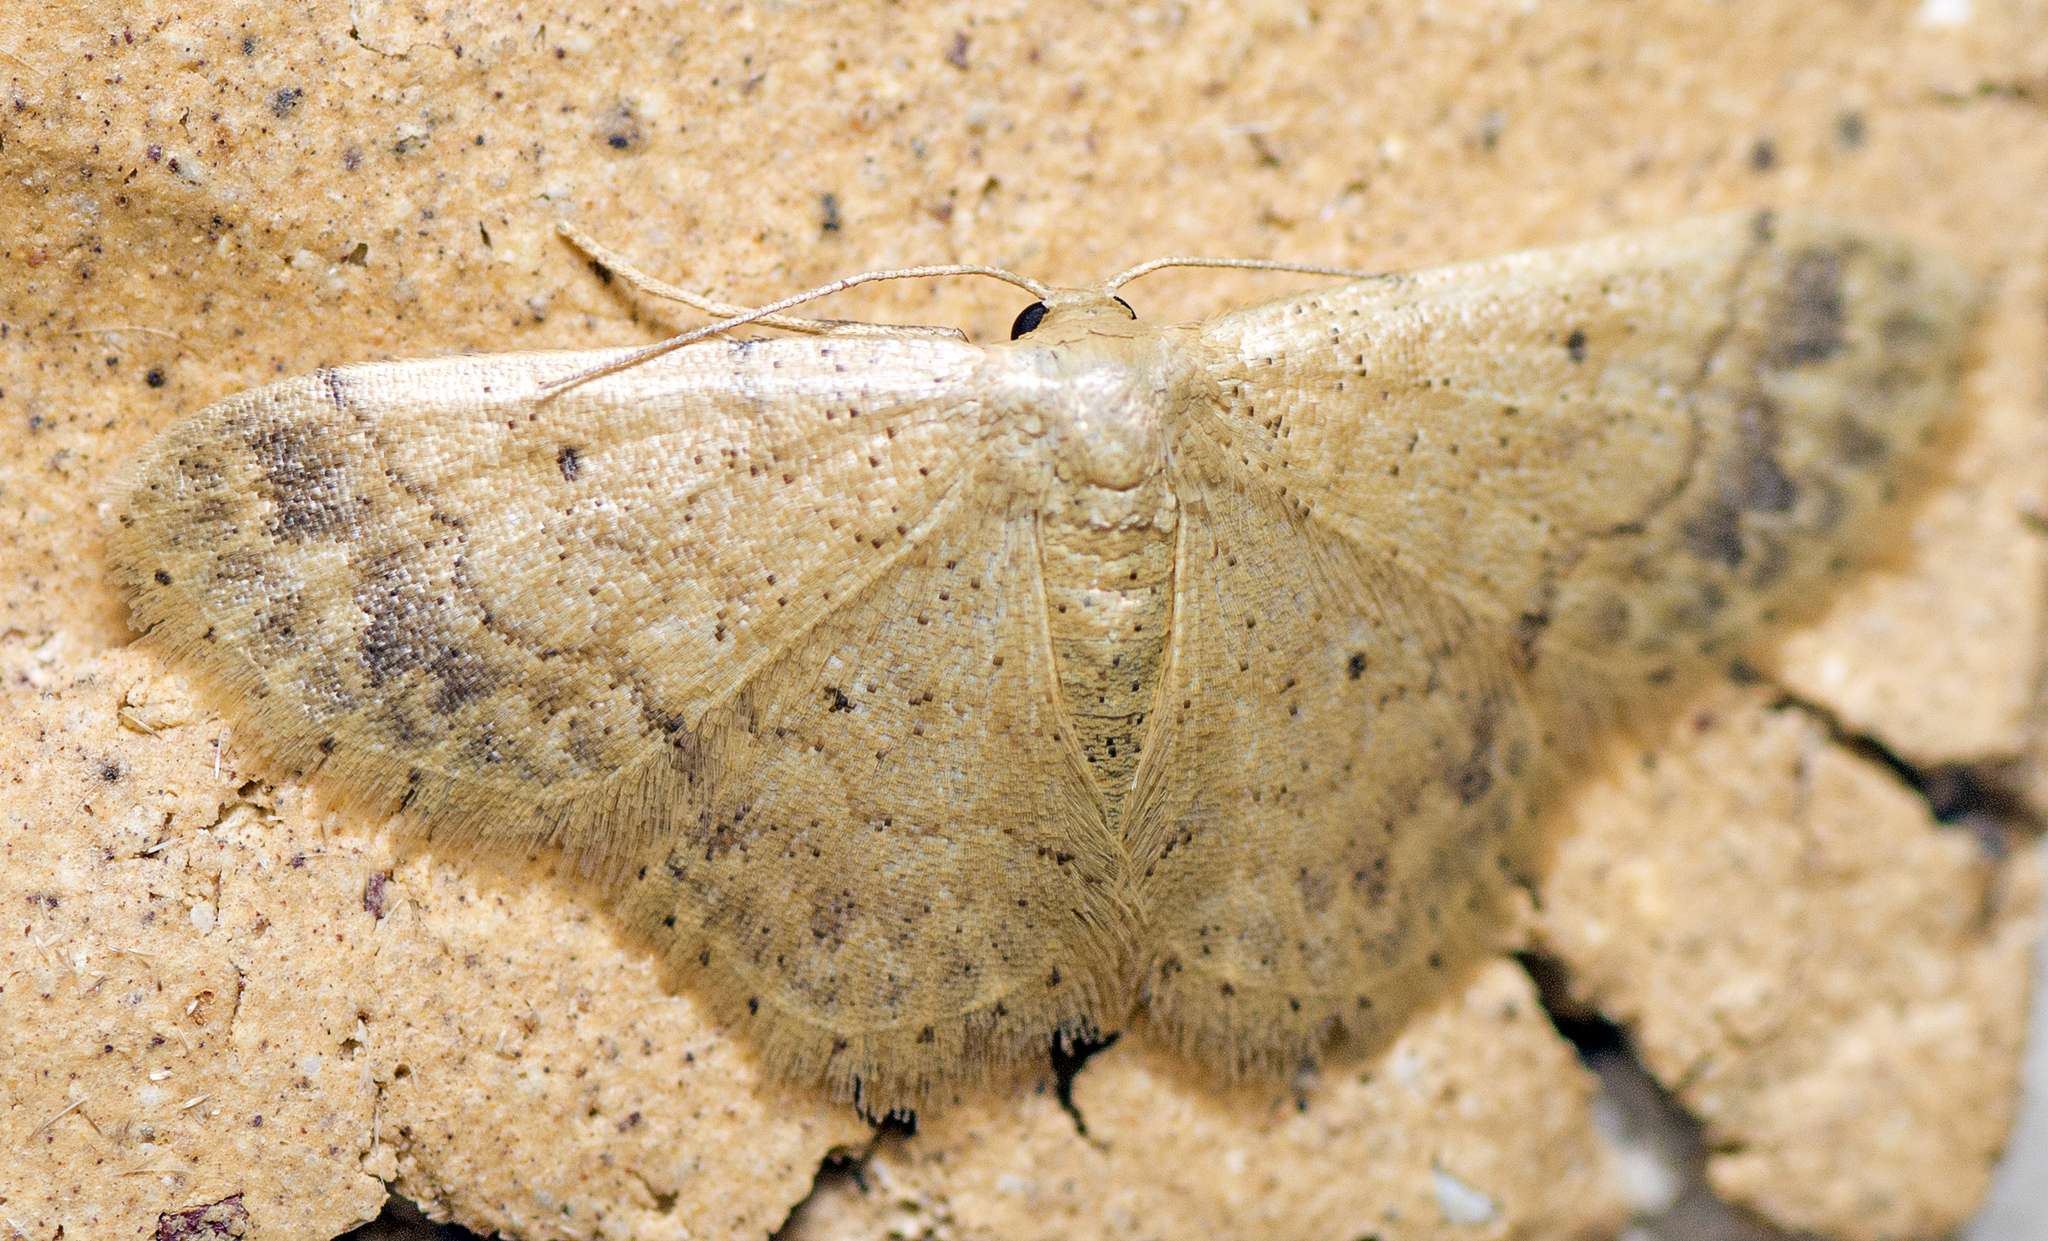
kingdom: Animalia
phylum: Arthropoda
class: Insecta
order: Lepidoptera
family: Geometridae
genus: Idaea
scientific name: Idaea pilosata
